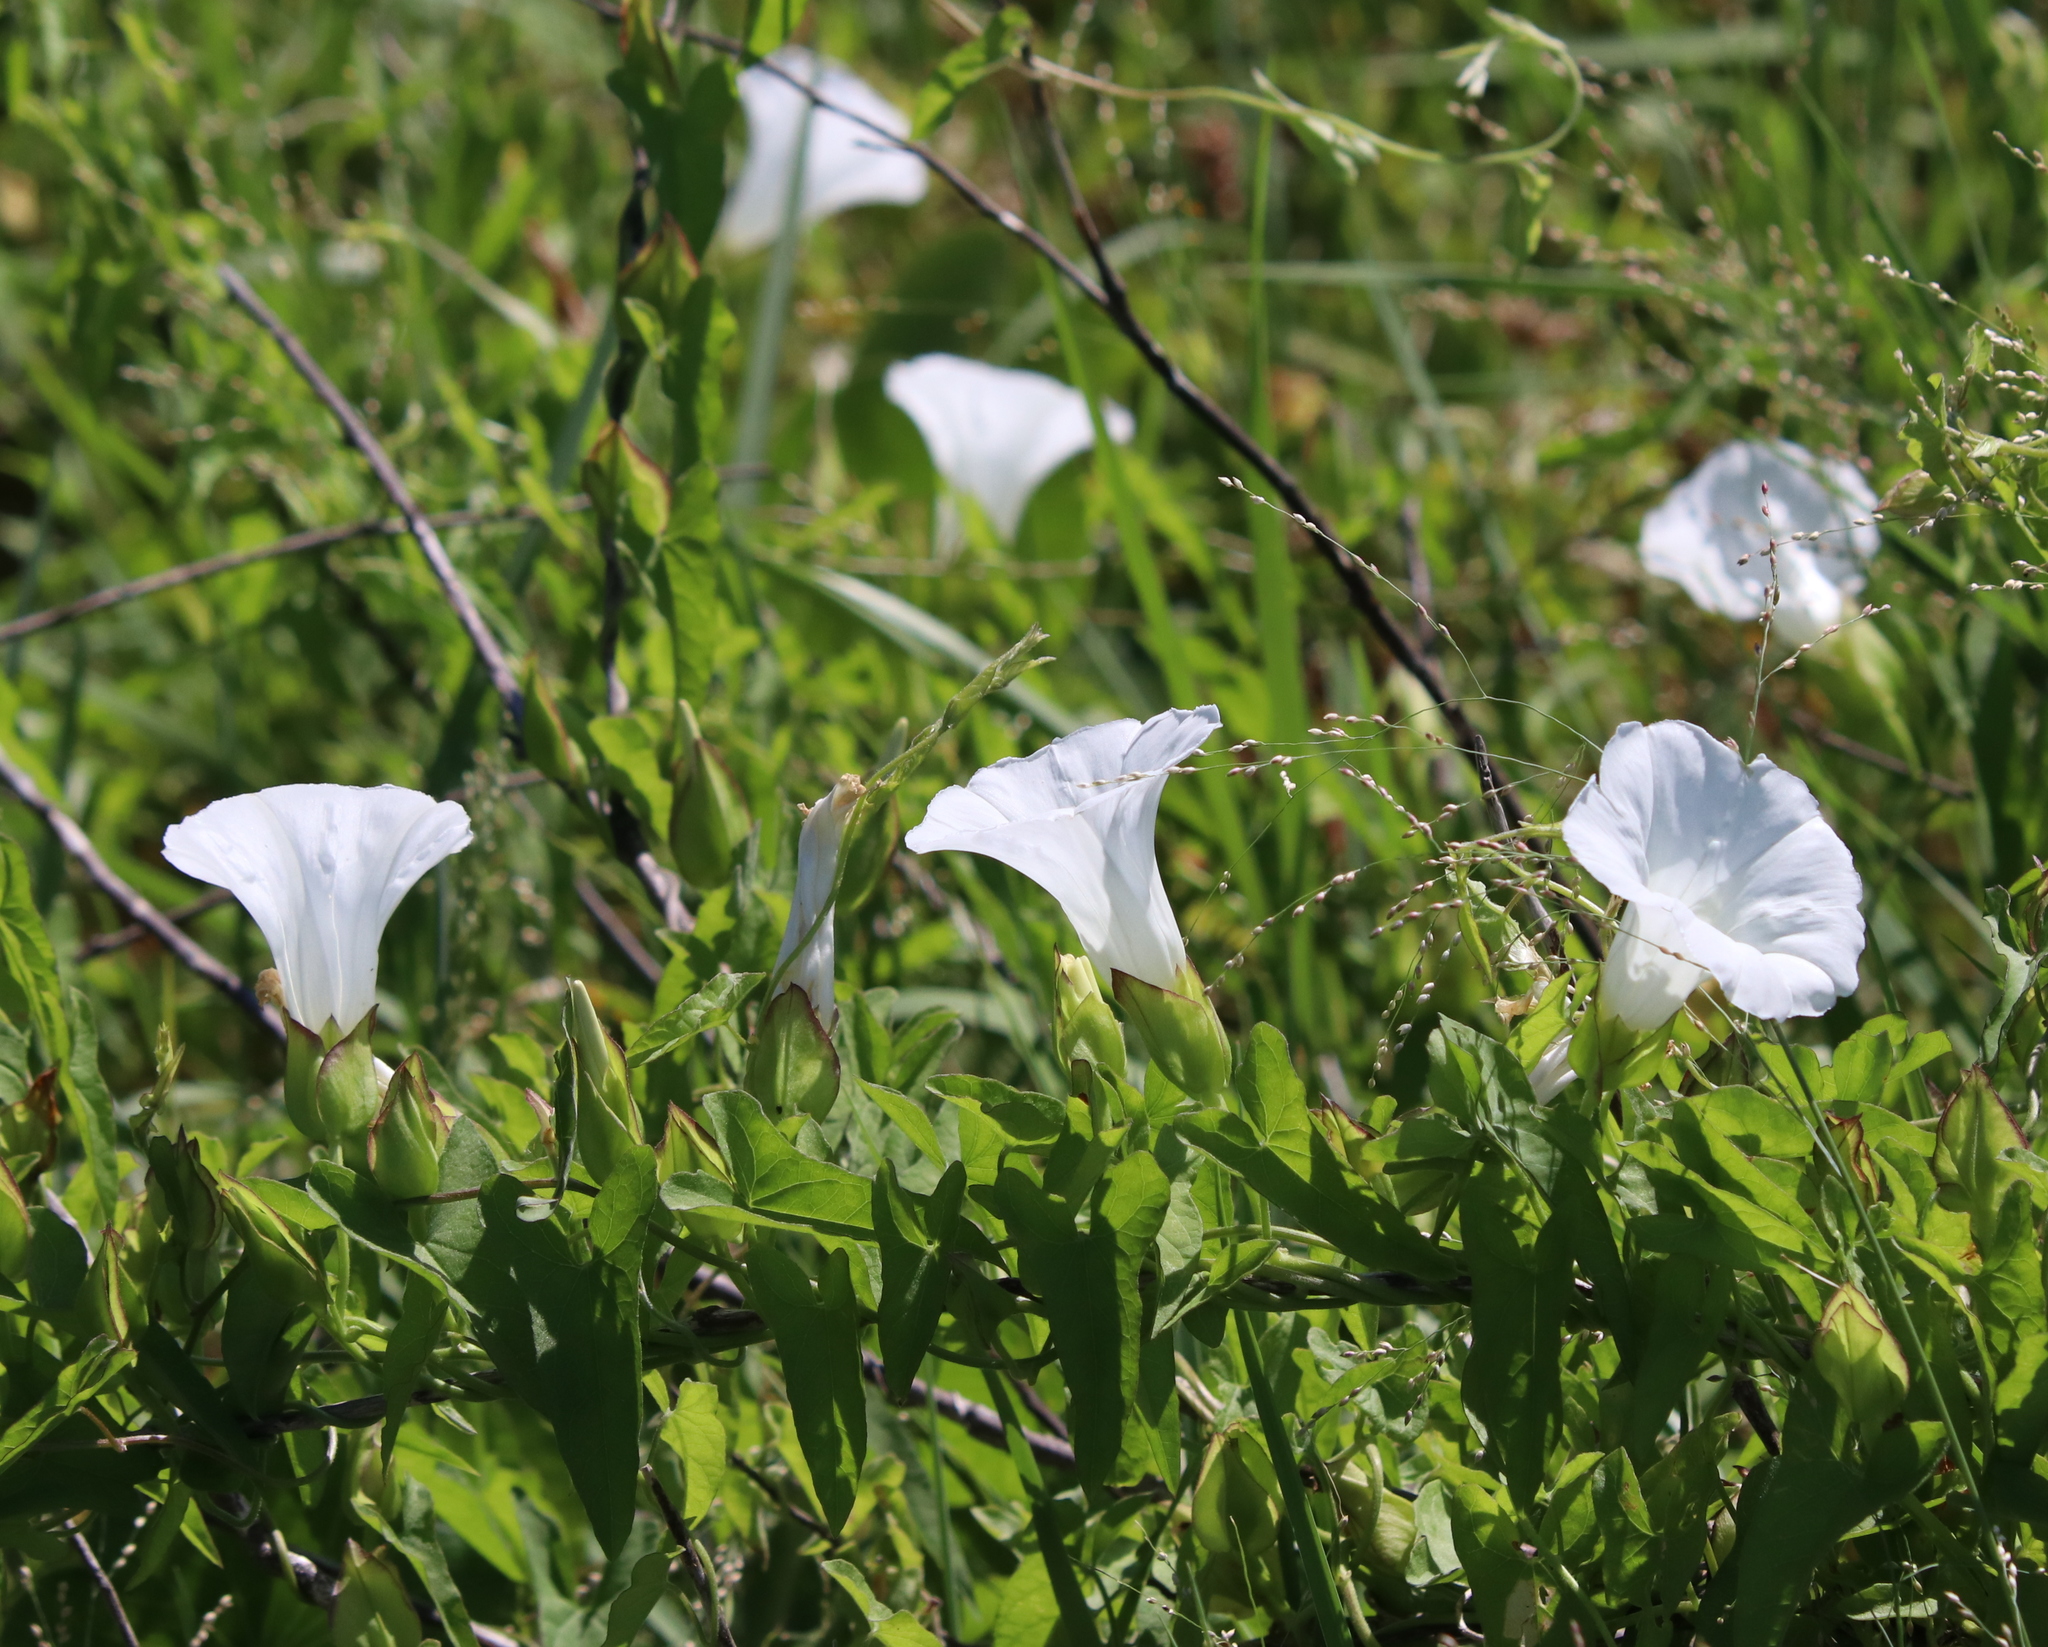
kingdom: Plantae
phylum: Tracheophyta
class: Magnoliopsida
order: Solanales
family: Convolvulaceae
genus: Calystegia
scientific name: Calystegia sepium
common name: Hedge bindweed
